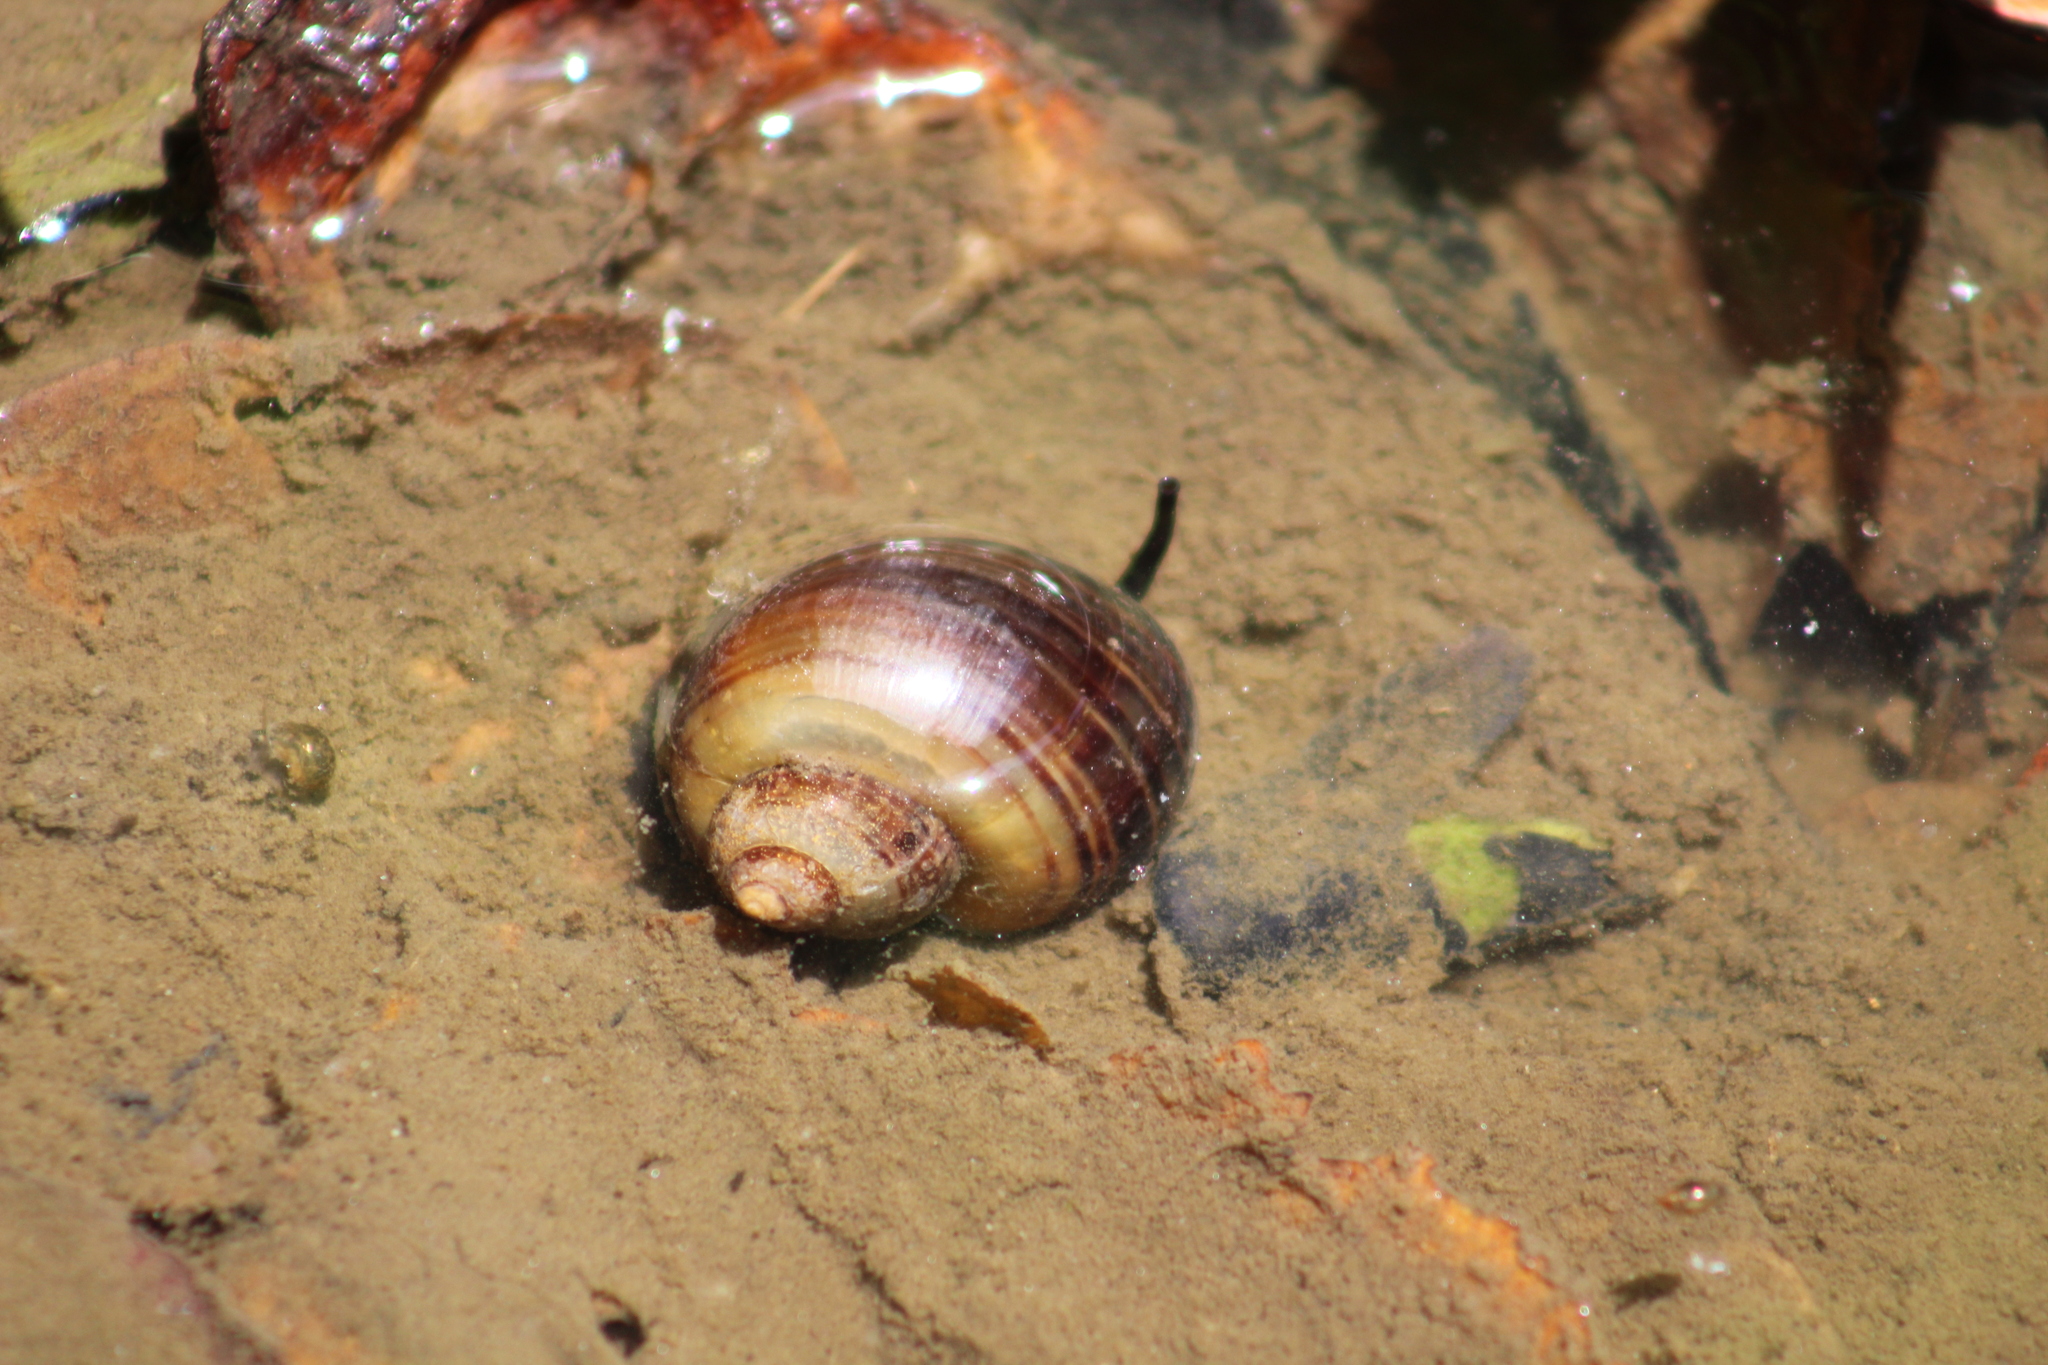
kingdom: Animalia
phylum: Mollusca
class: Gastropoda
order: Architaenioglossa
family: Ampullariidae
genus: Pomacea
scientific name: Pomacea canaliculata
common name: Channeled applesnail
